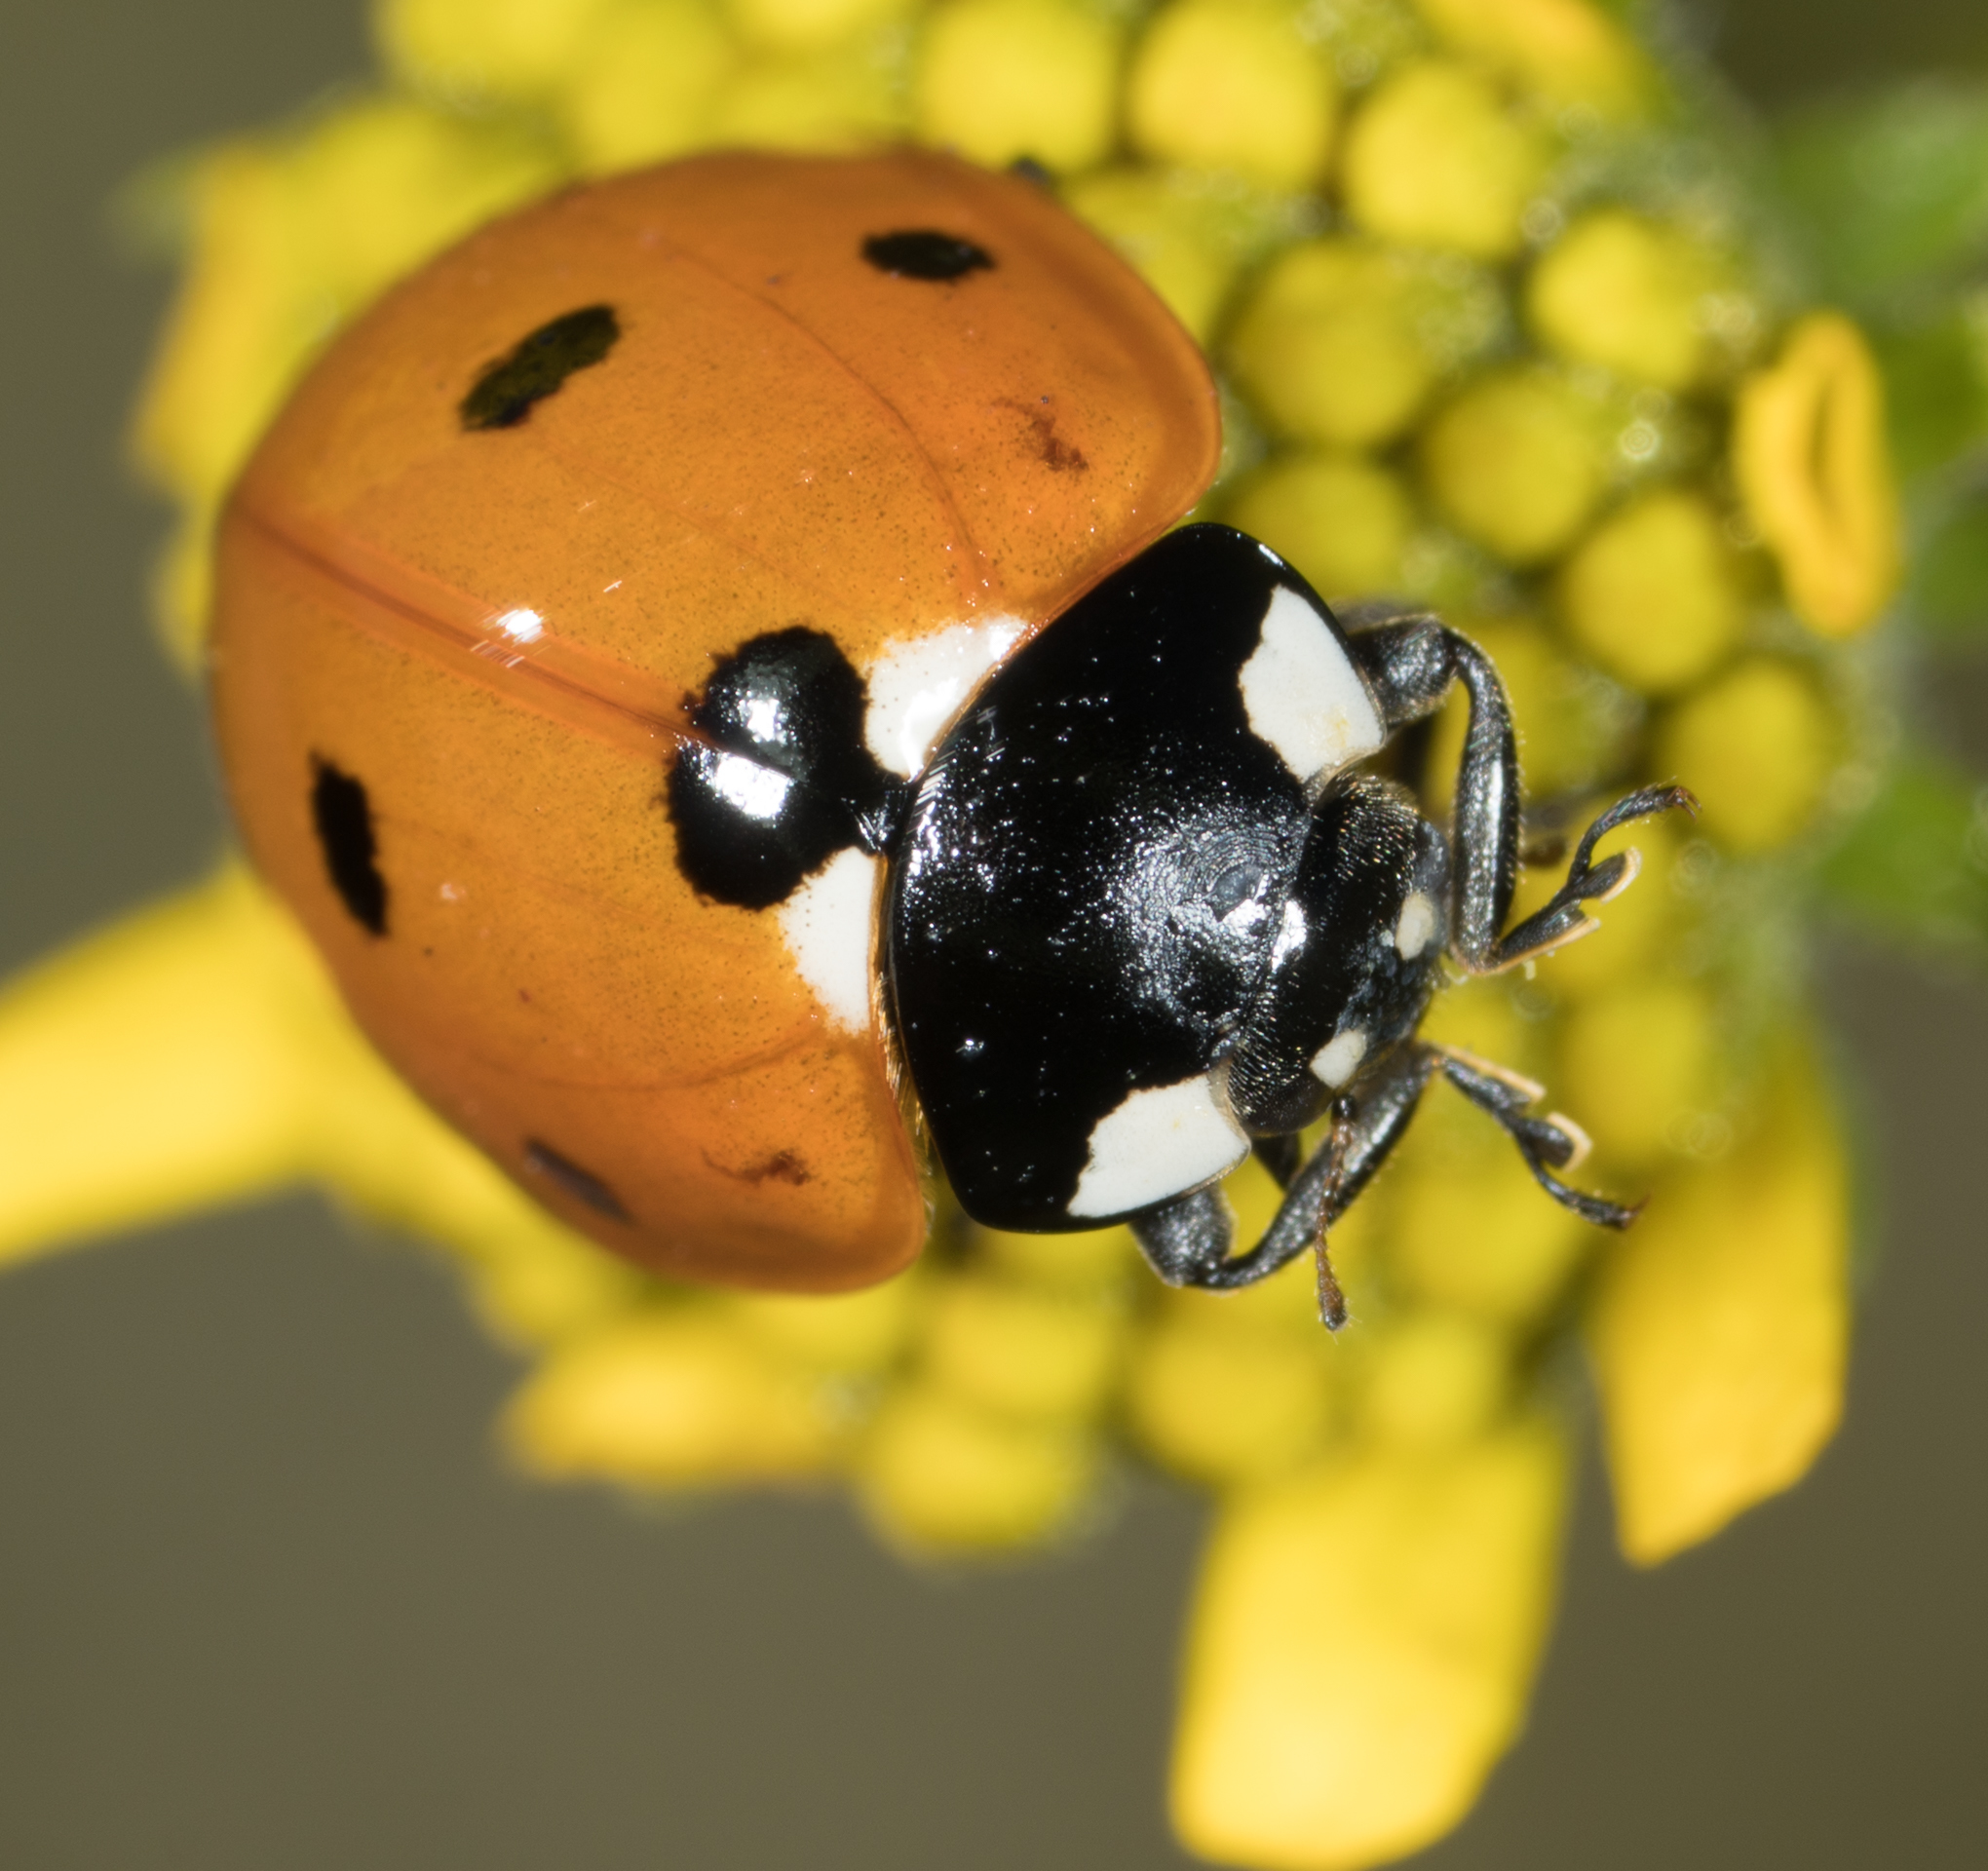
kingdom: Animalia
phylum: Arthropoda
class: Insecta
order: Coleoptera
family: Coccinellidae
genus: Coccinella
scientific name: Coccinella septempunctata
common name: Sevenspotted lady beetle
